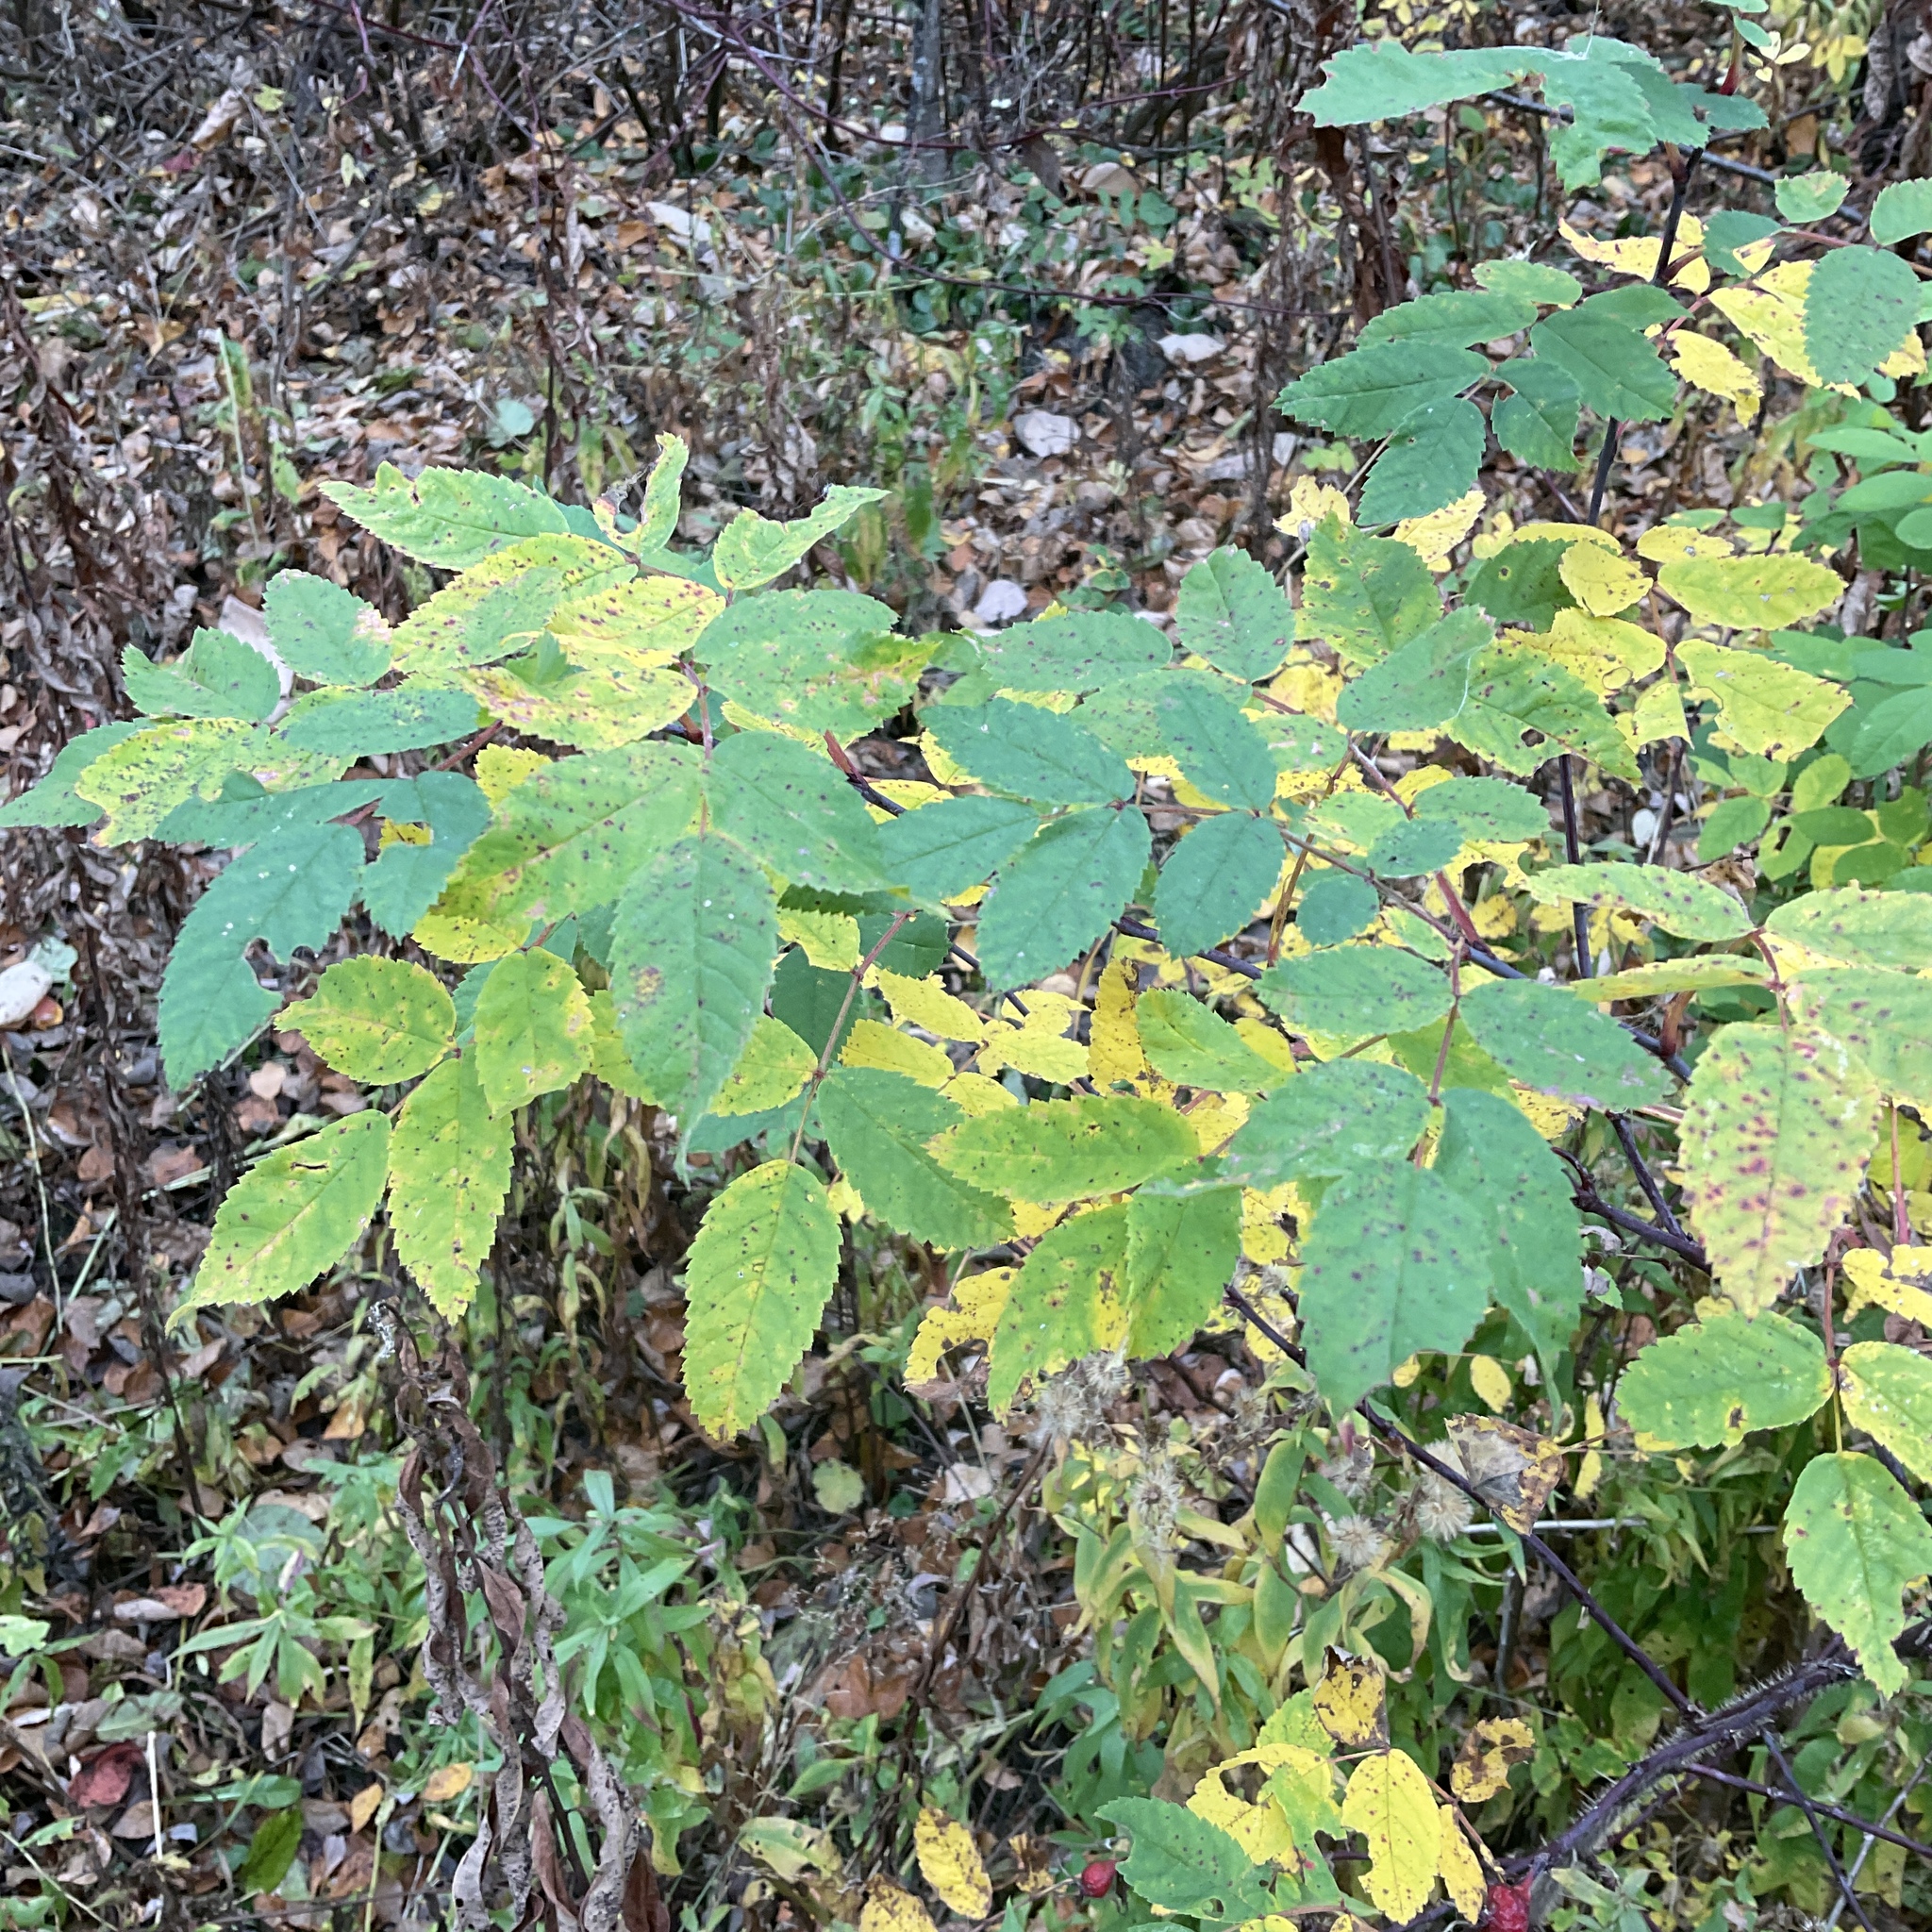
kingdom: Plantae
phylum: Tracheophyta
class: Magnoliopsida
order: Rosales
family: Rosaceae
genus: Rosa
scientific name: Rosa acicularis
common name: Prickly rose
